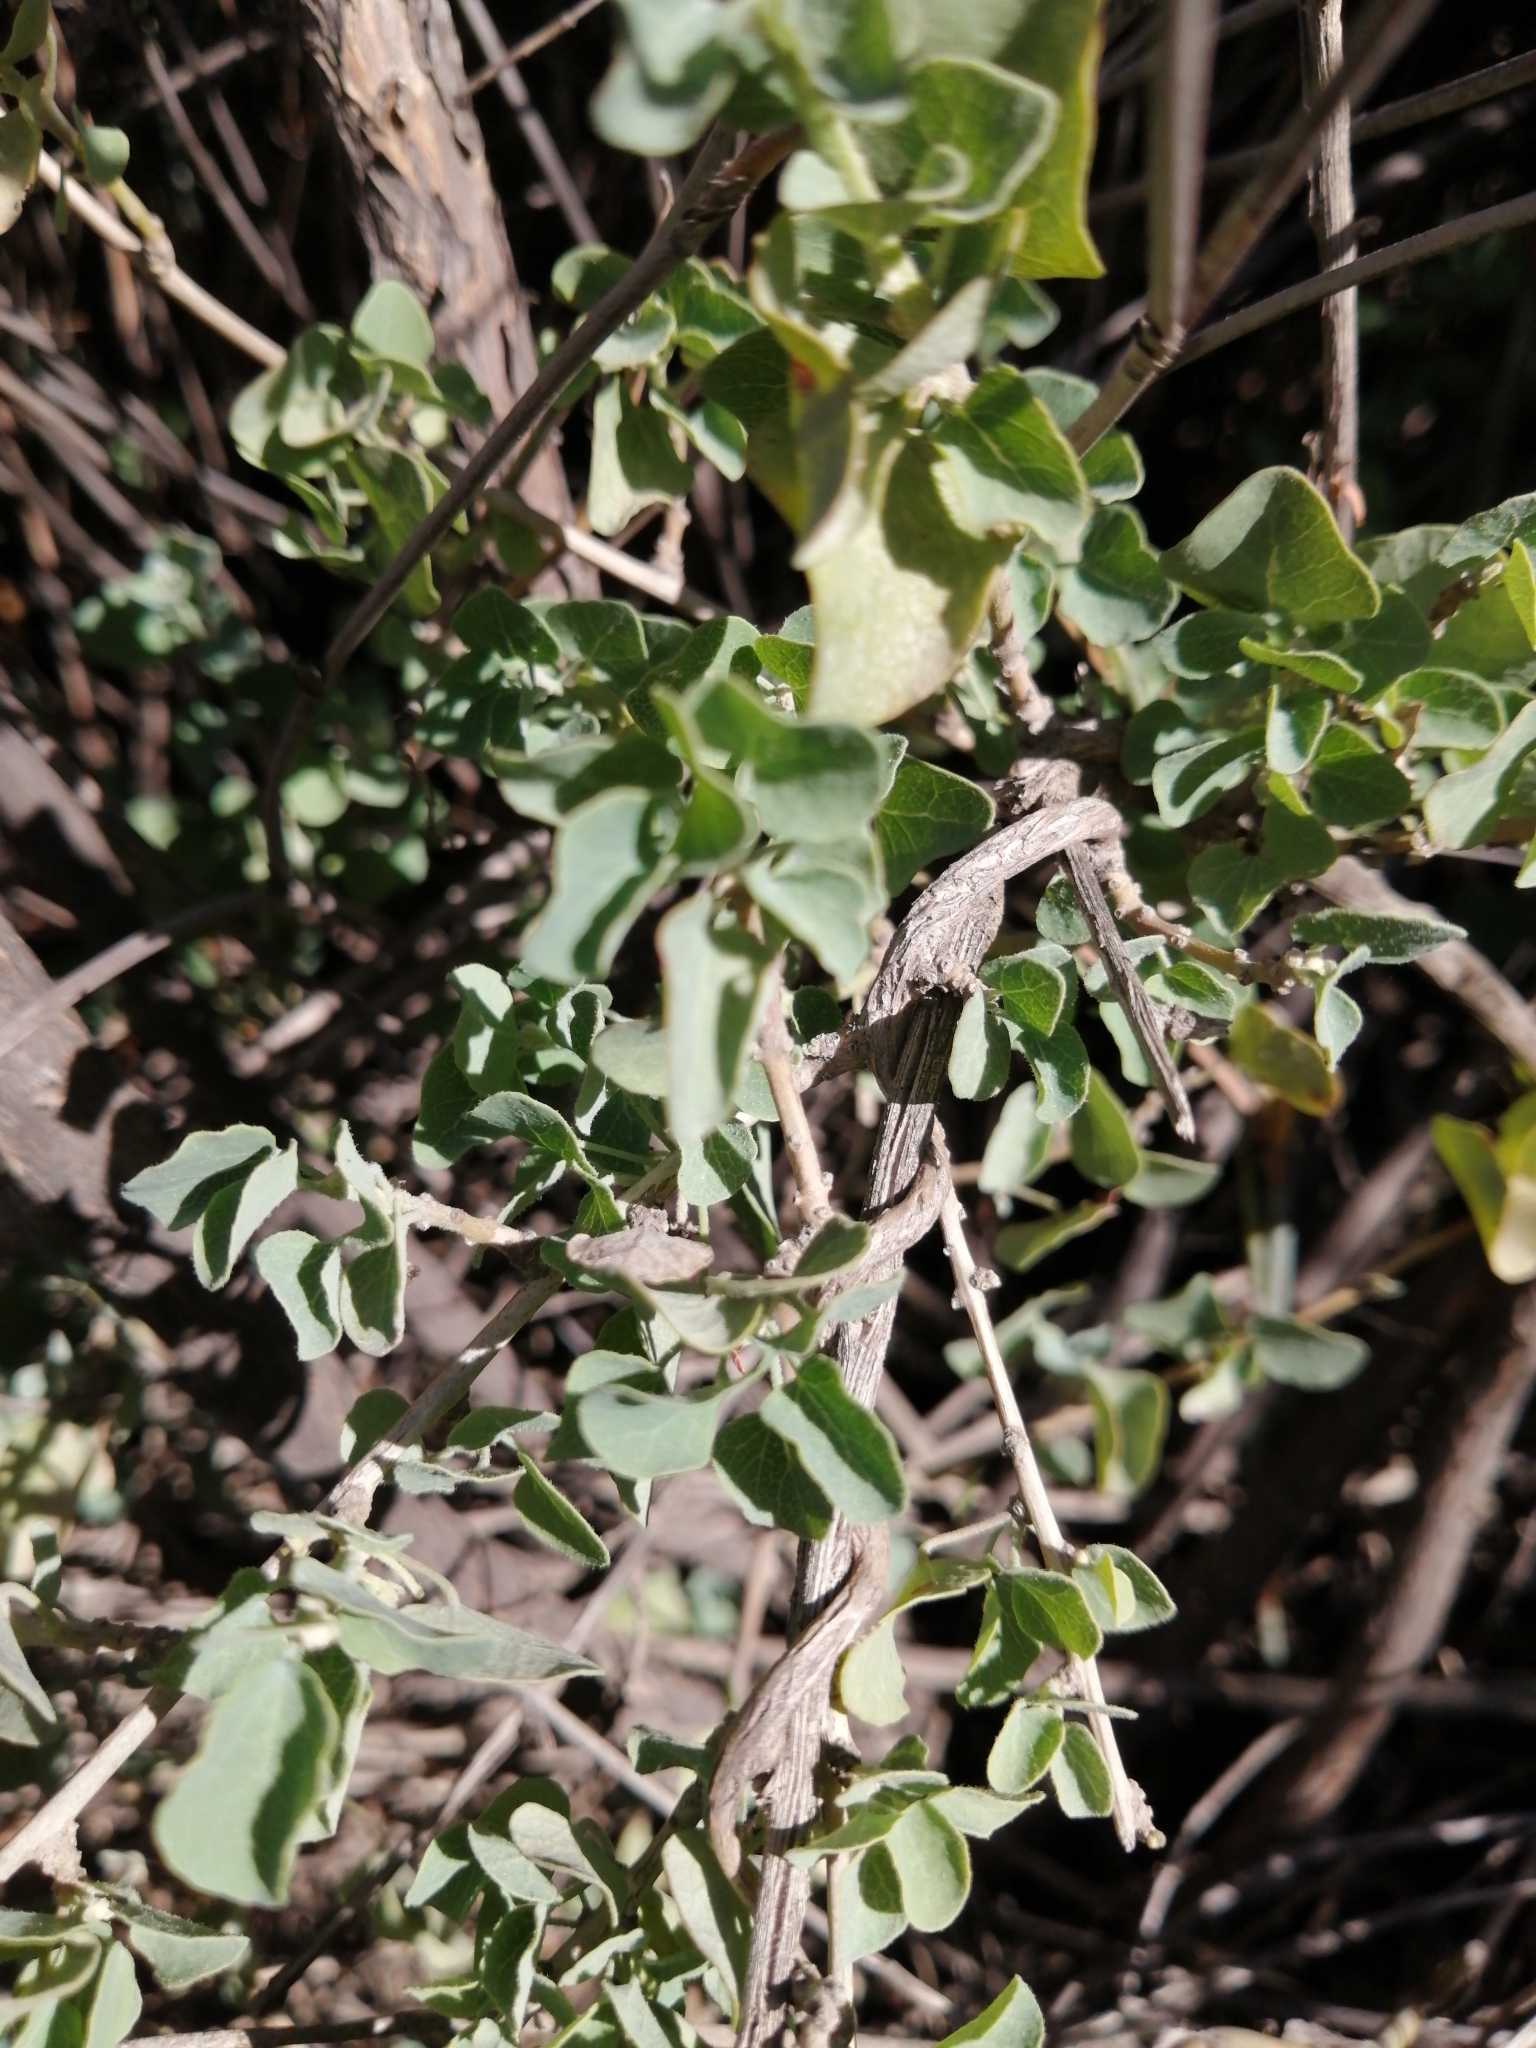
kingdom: Plantae
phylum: Tracheophyta
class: Magnoliopsida
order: Ranunculales
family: Menispermaceae
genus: Cissampelos
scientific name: Cissampelos capensis
